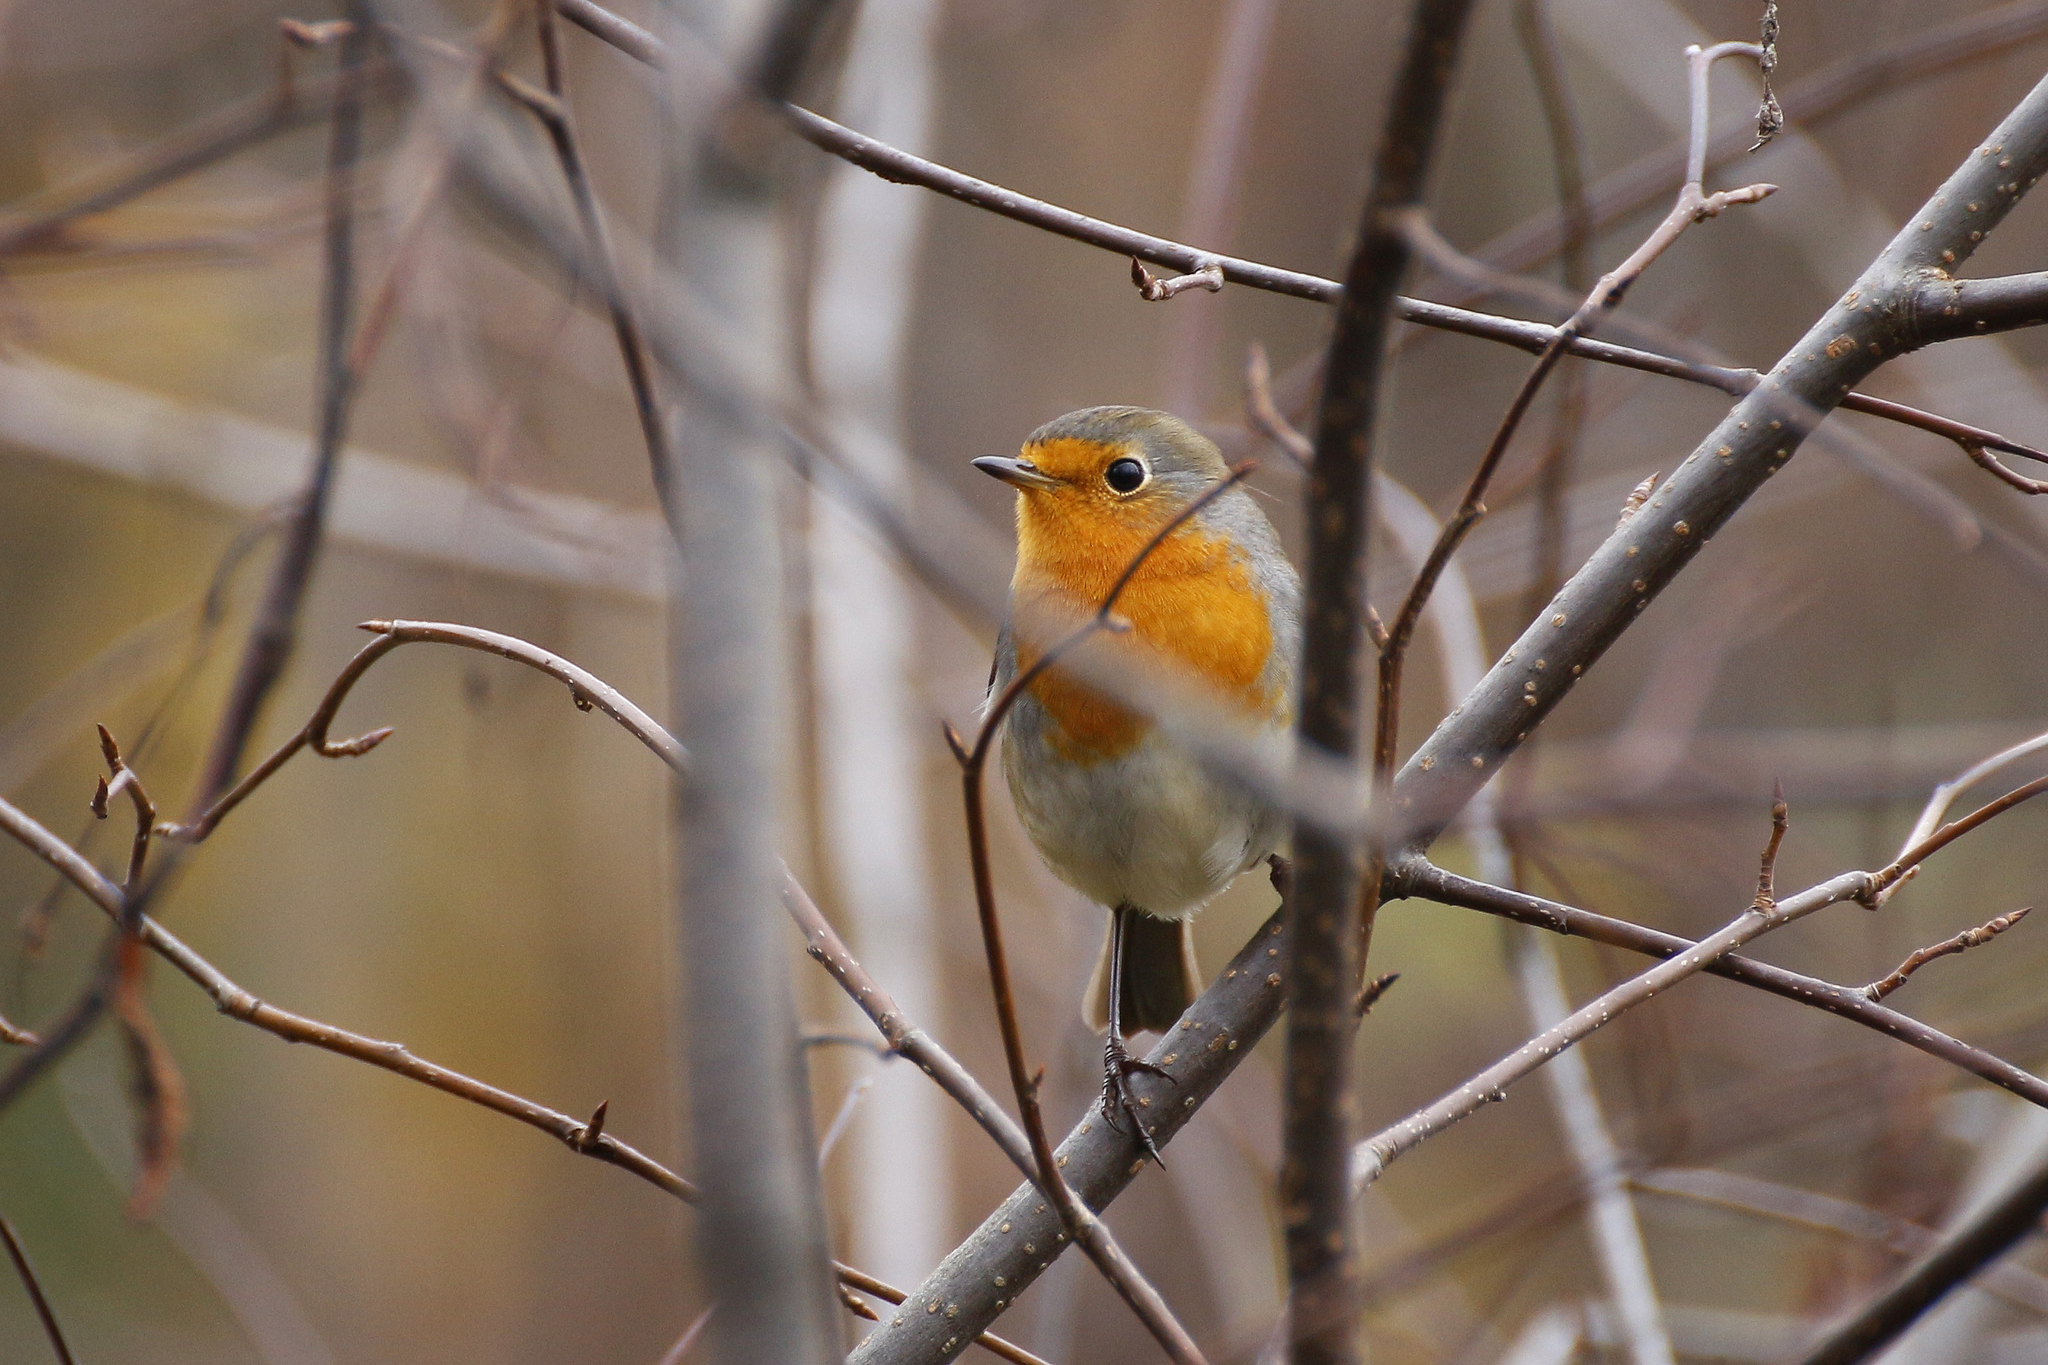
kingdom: Animalia
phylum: Chordata
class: Aves
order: Passeriformes
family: Muscicapidae
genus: Erithacus
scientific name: Erithacus rubecula
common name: European robin
